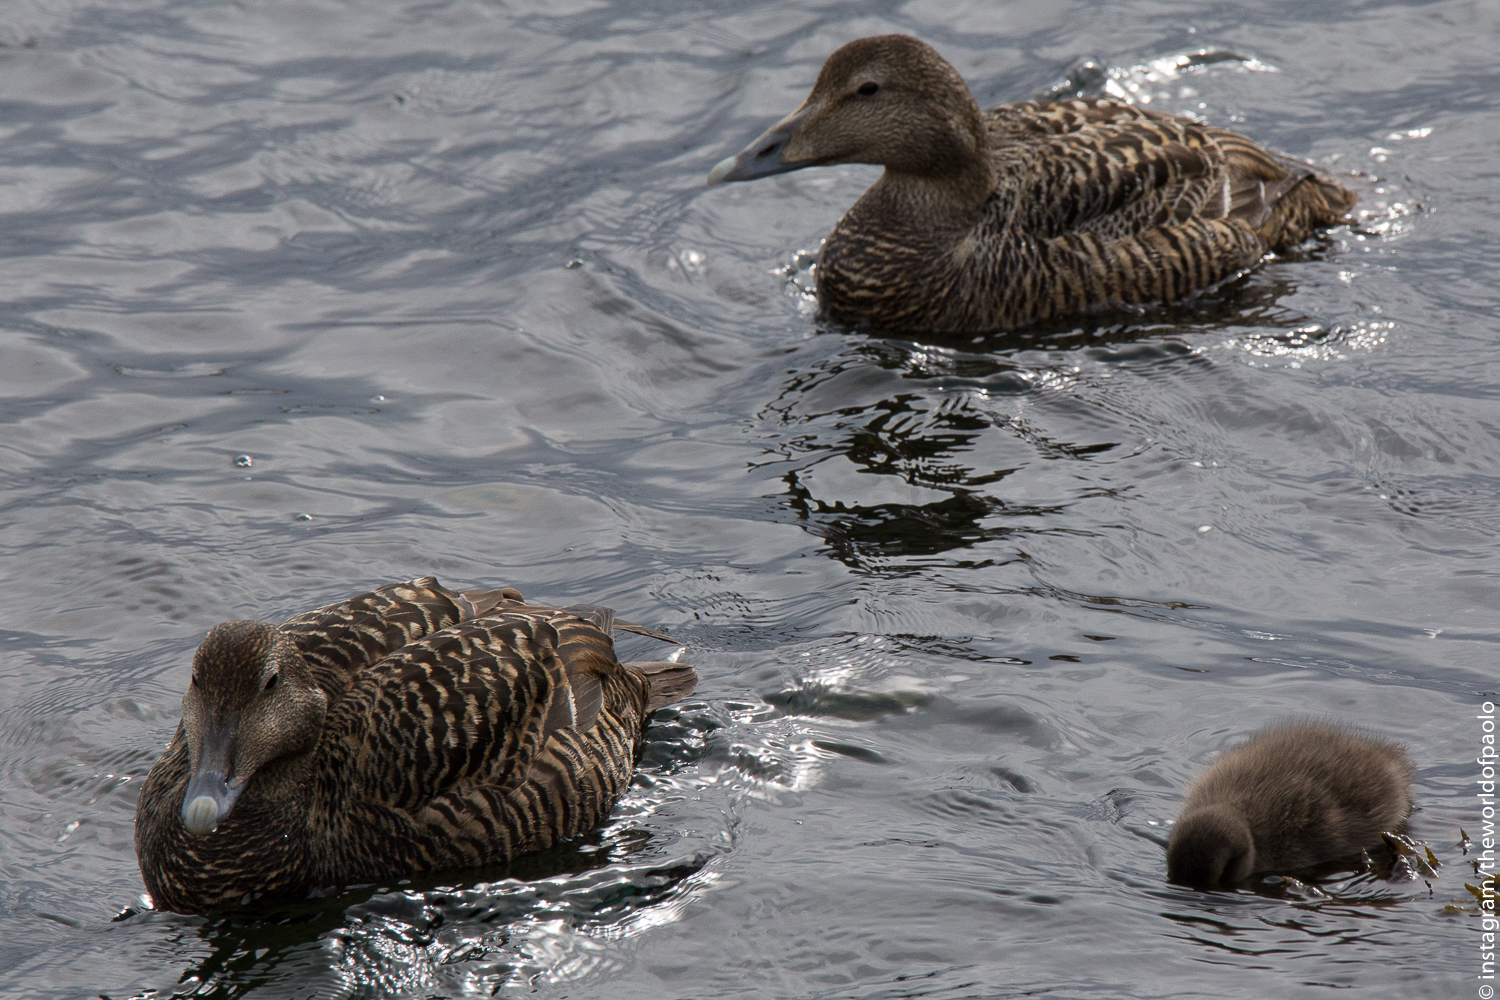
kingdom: Animalia
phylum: Chordata
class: Aves
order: Anseriformes
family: Anatidae
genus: Somateria
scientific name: Somateria mollissima
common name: Common eider
